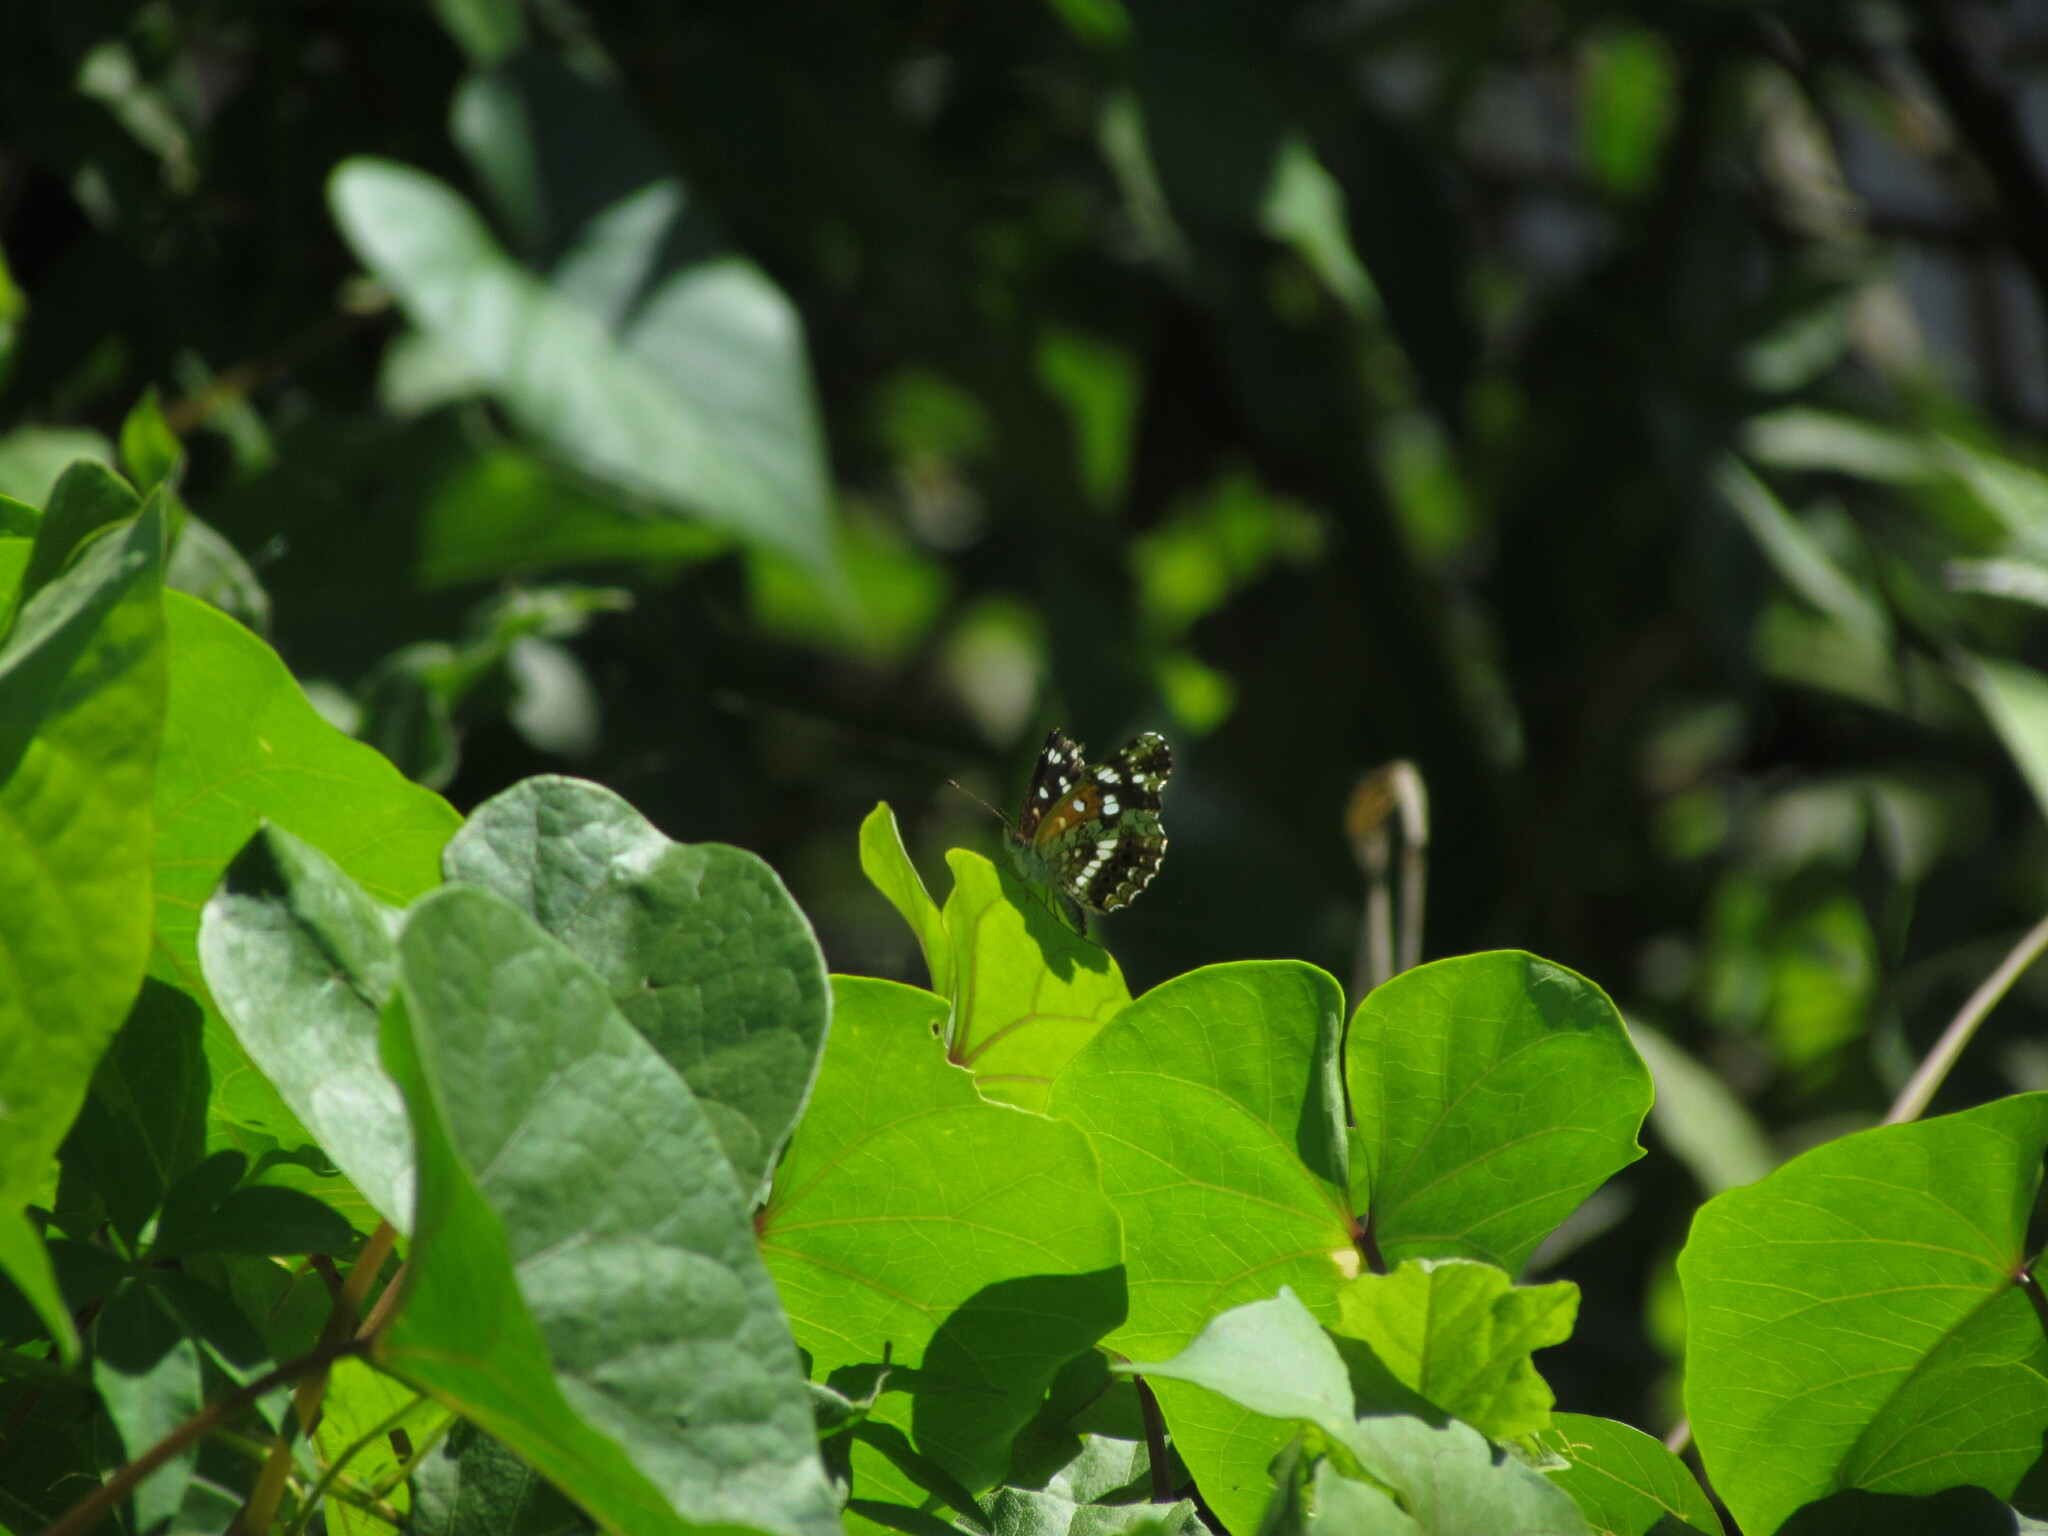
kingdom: Animalia
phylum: Arthropoda
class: Insecta
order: Lepidoptera
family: Nymphalidae
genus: Ortilia
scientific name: Ortilia ithra
